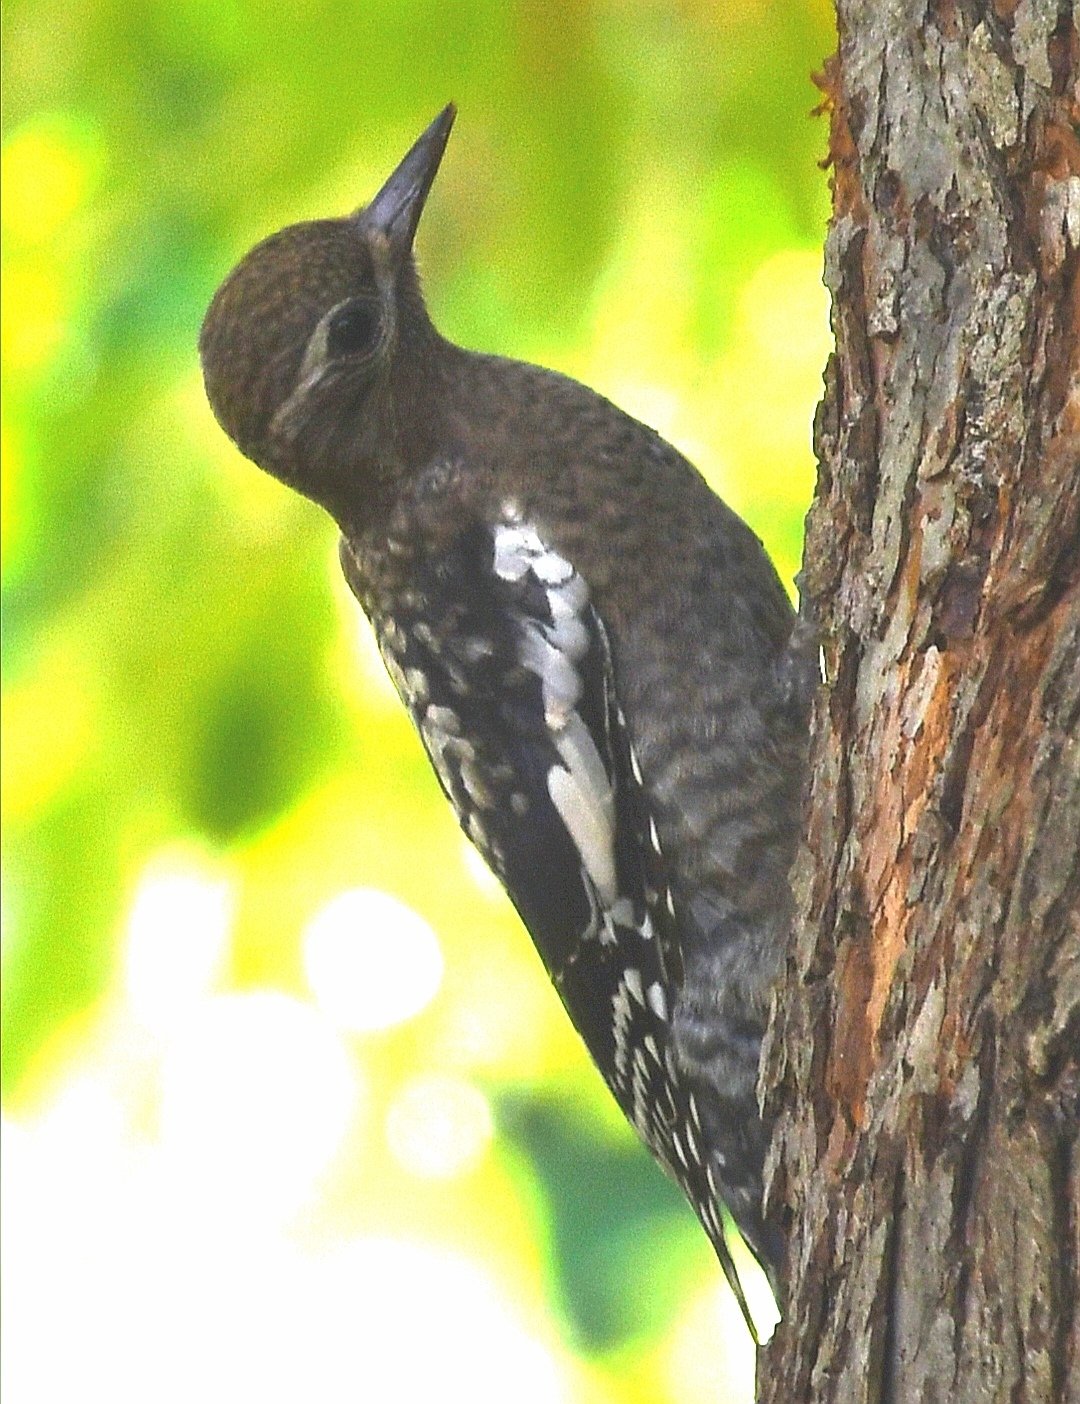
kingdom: Animalia
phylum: Chordata
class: Aves
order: Piciformes
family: Picidae
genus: Sphyrapicus
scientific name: Sphyrapicus varius
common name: Yellow-bellied sapsucker
